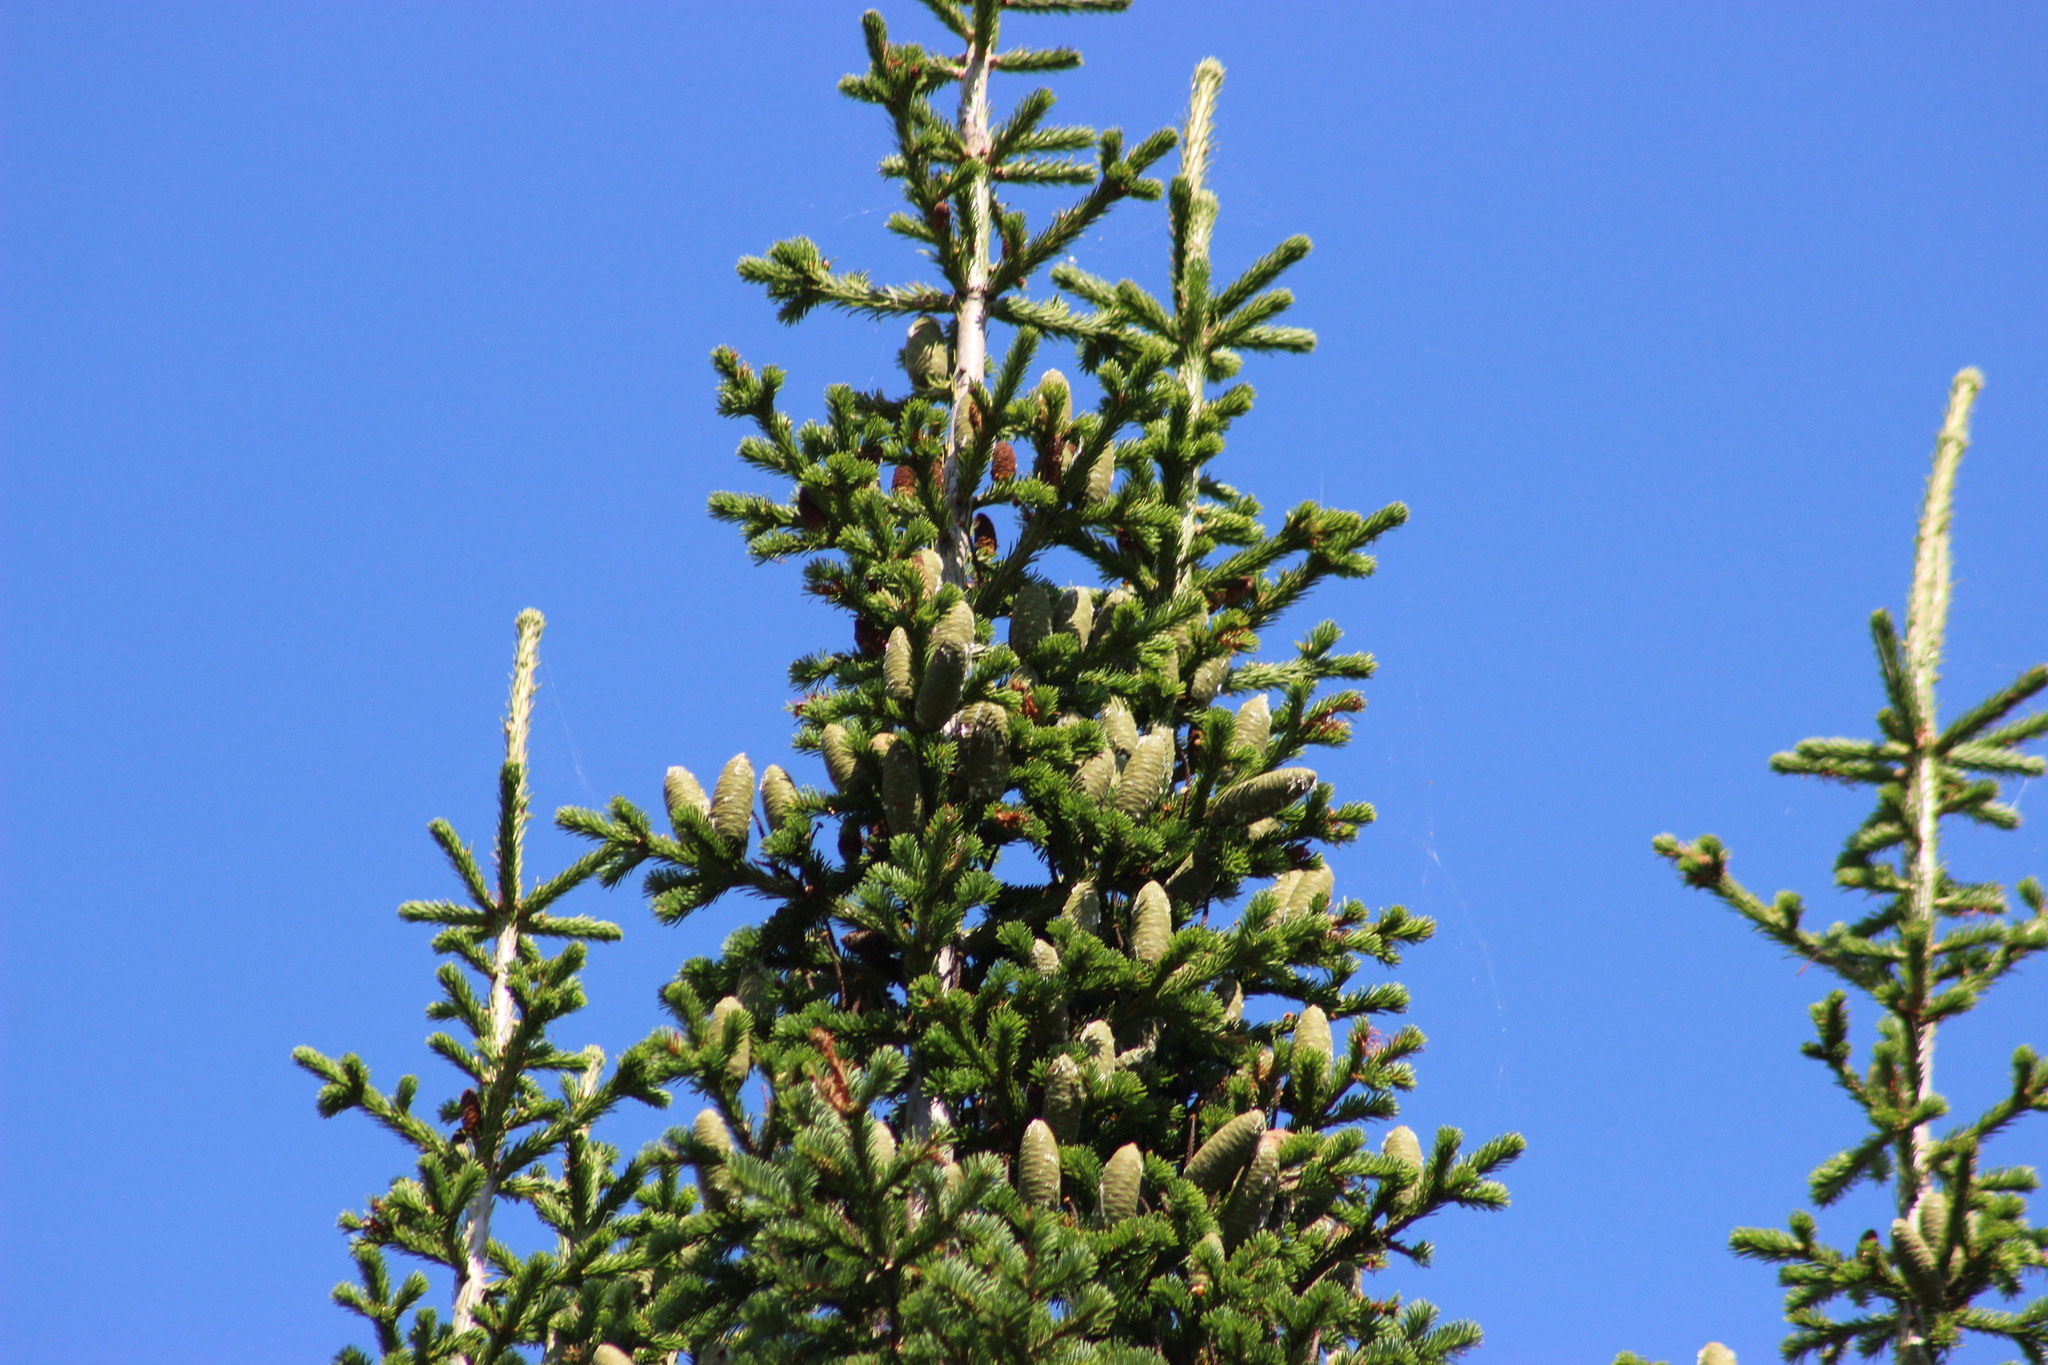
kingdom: Plantae
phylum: Tracheophyta
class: Pinopsida
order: Pinales
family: Pinaceae
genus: Abies
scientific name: Abies sibirica
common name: Siberian fir
